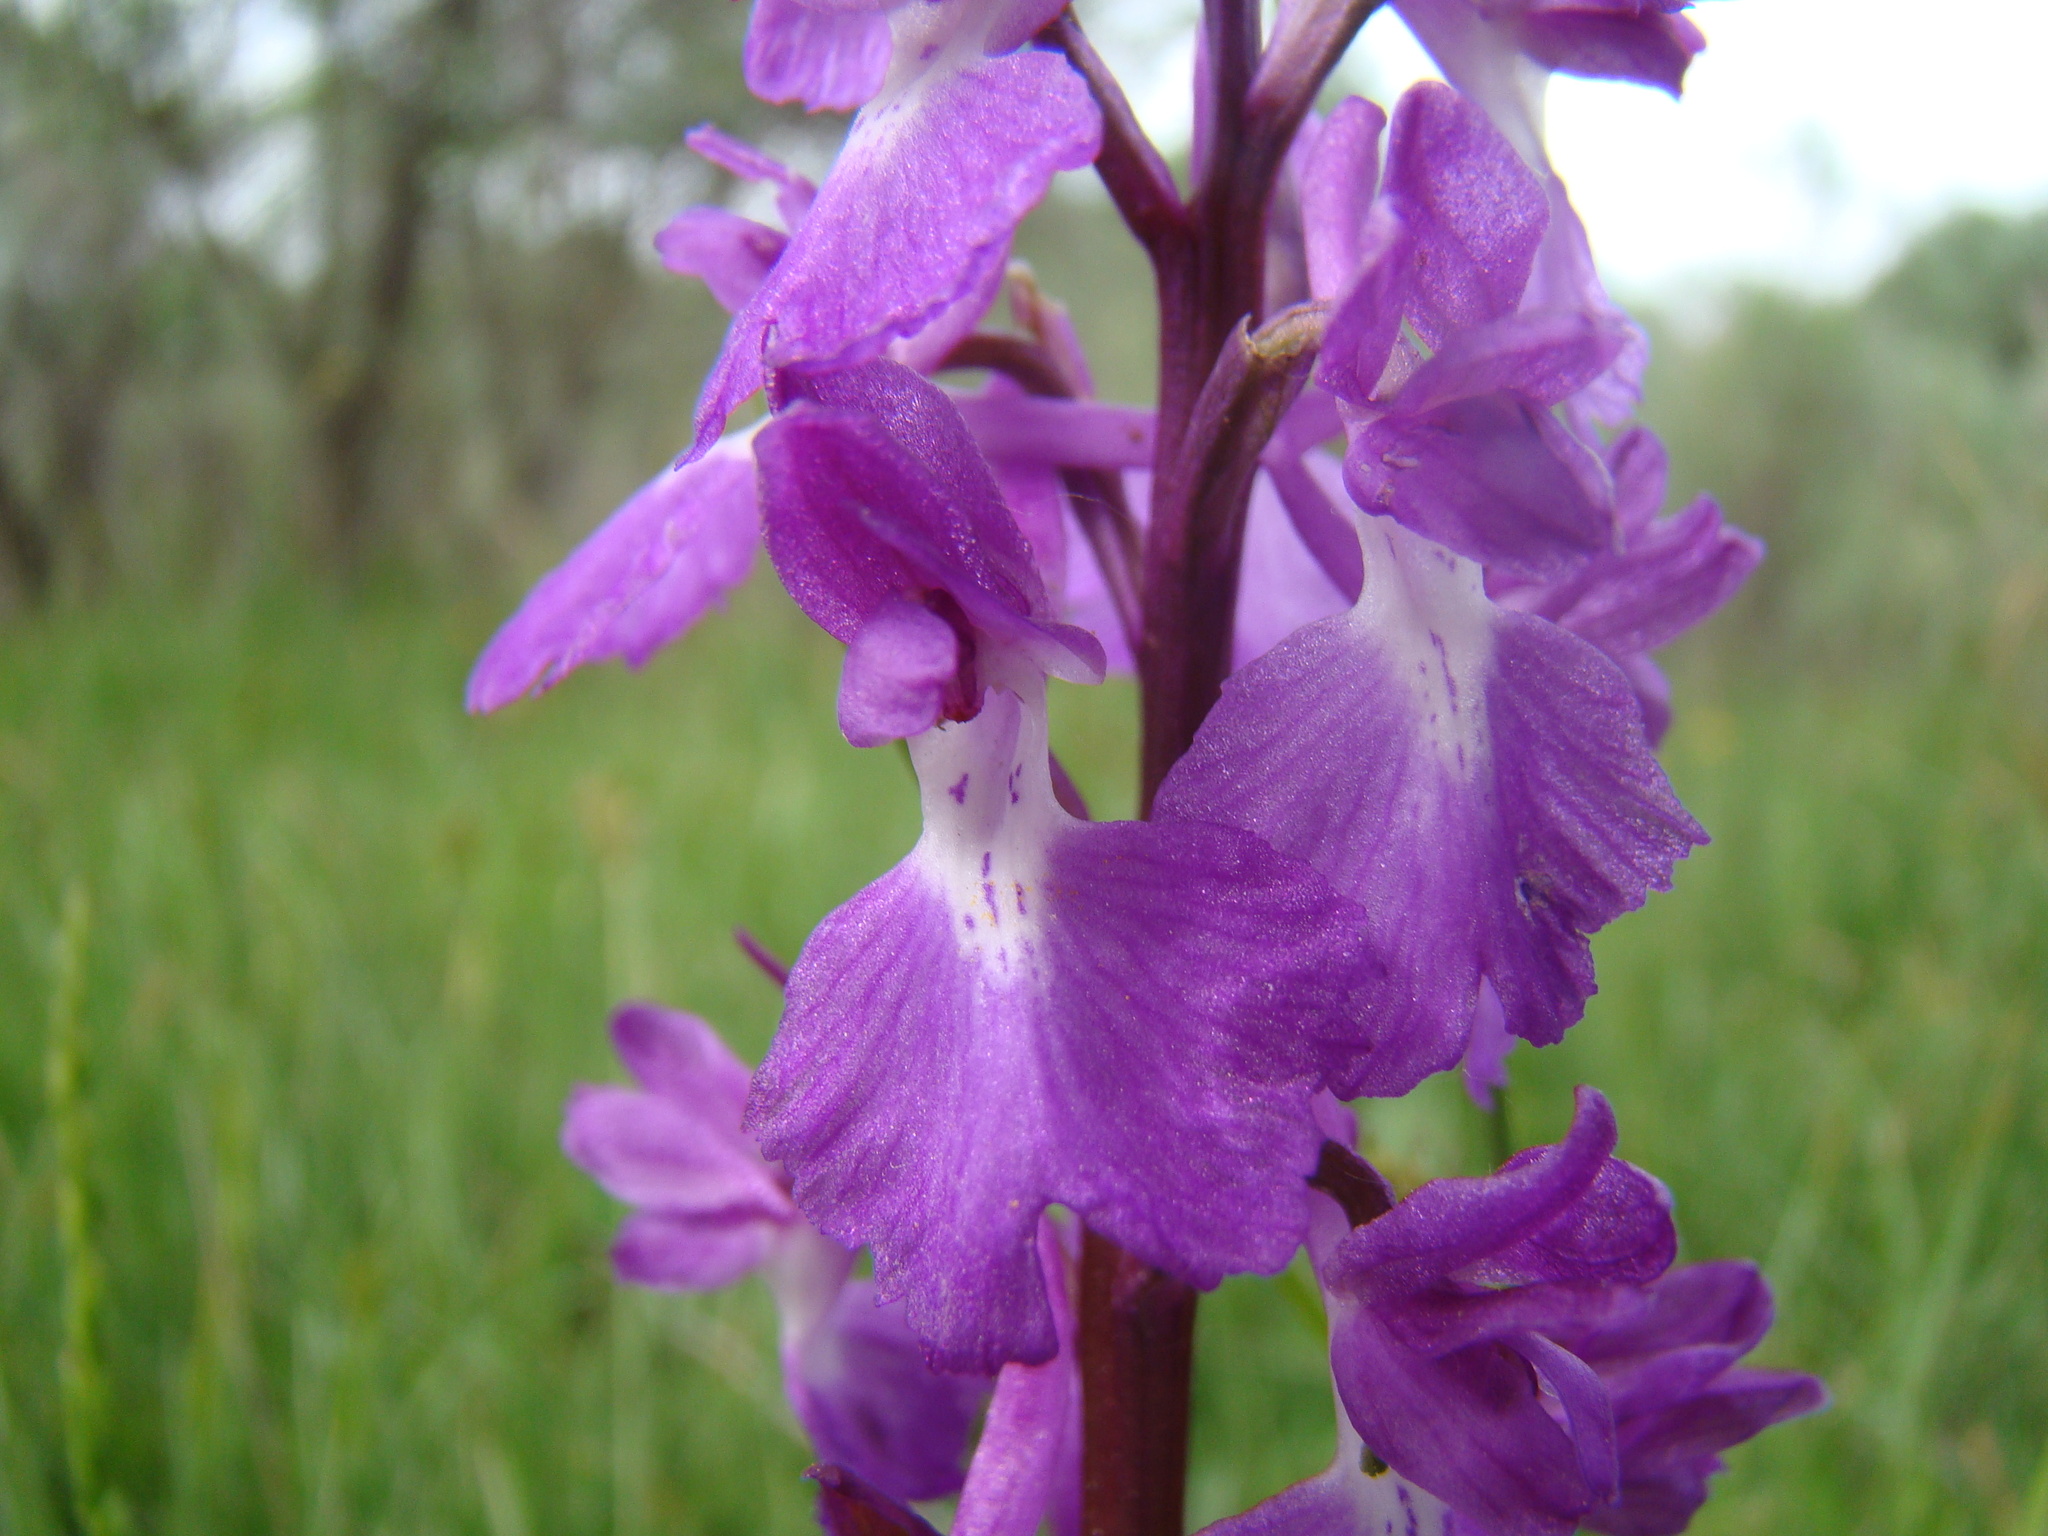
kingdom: Plantae
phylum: Tracheophyta
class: Liliopsida
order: Asparagales
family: Orchidaceae
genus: Anacamptis
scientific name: Anacamptis palustris
